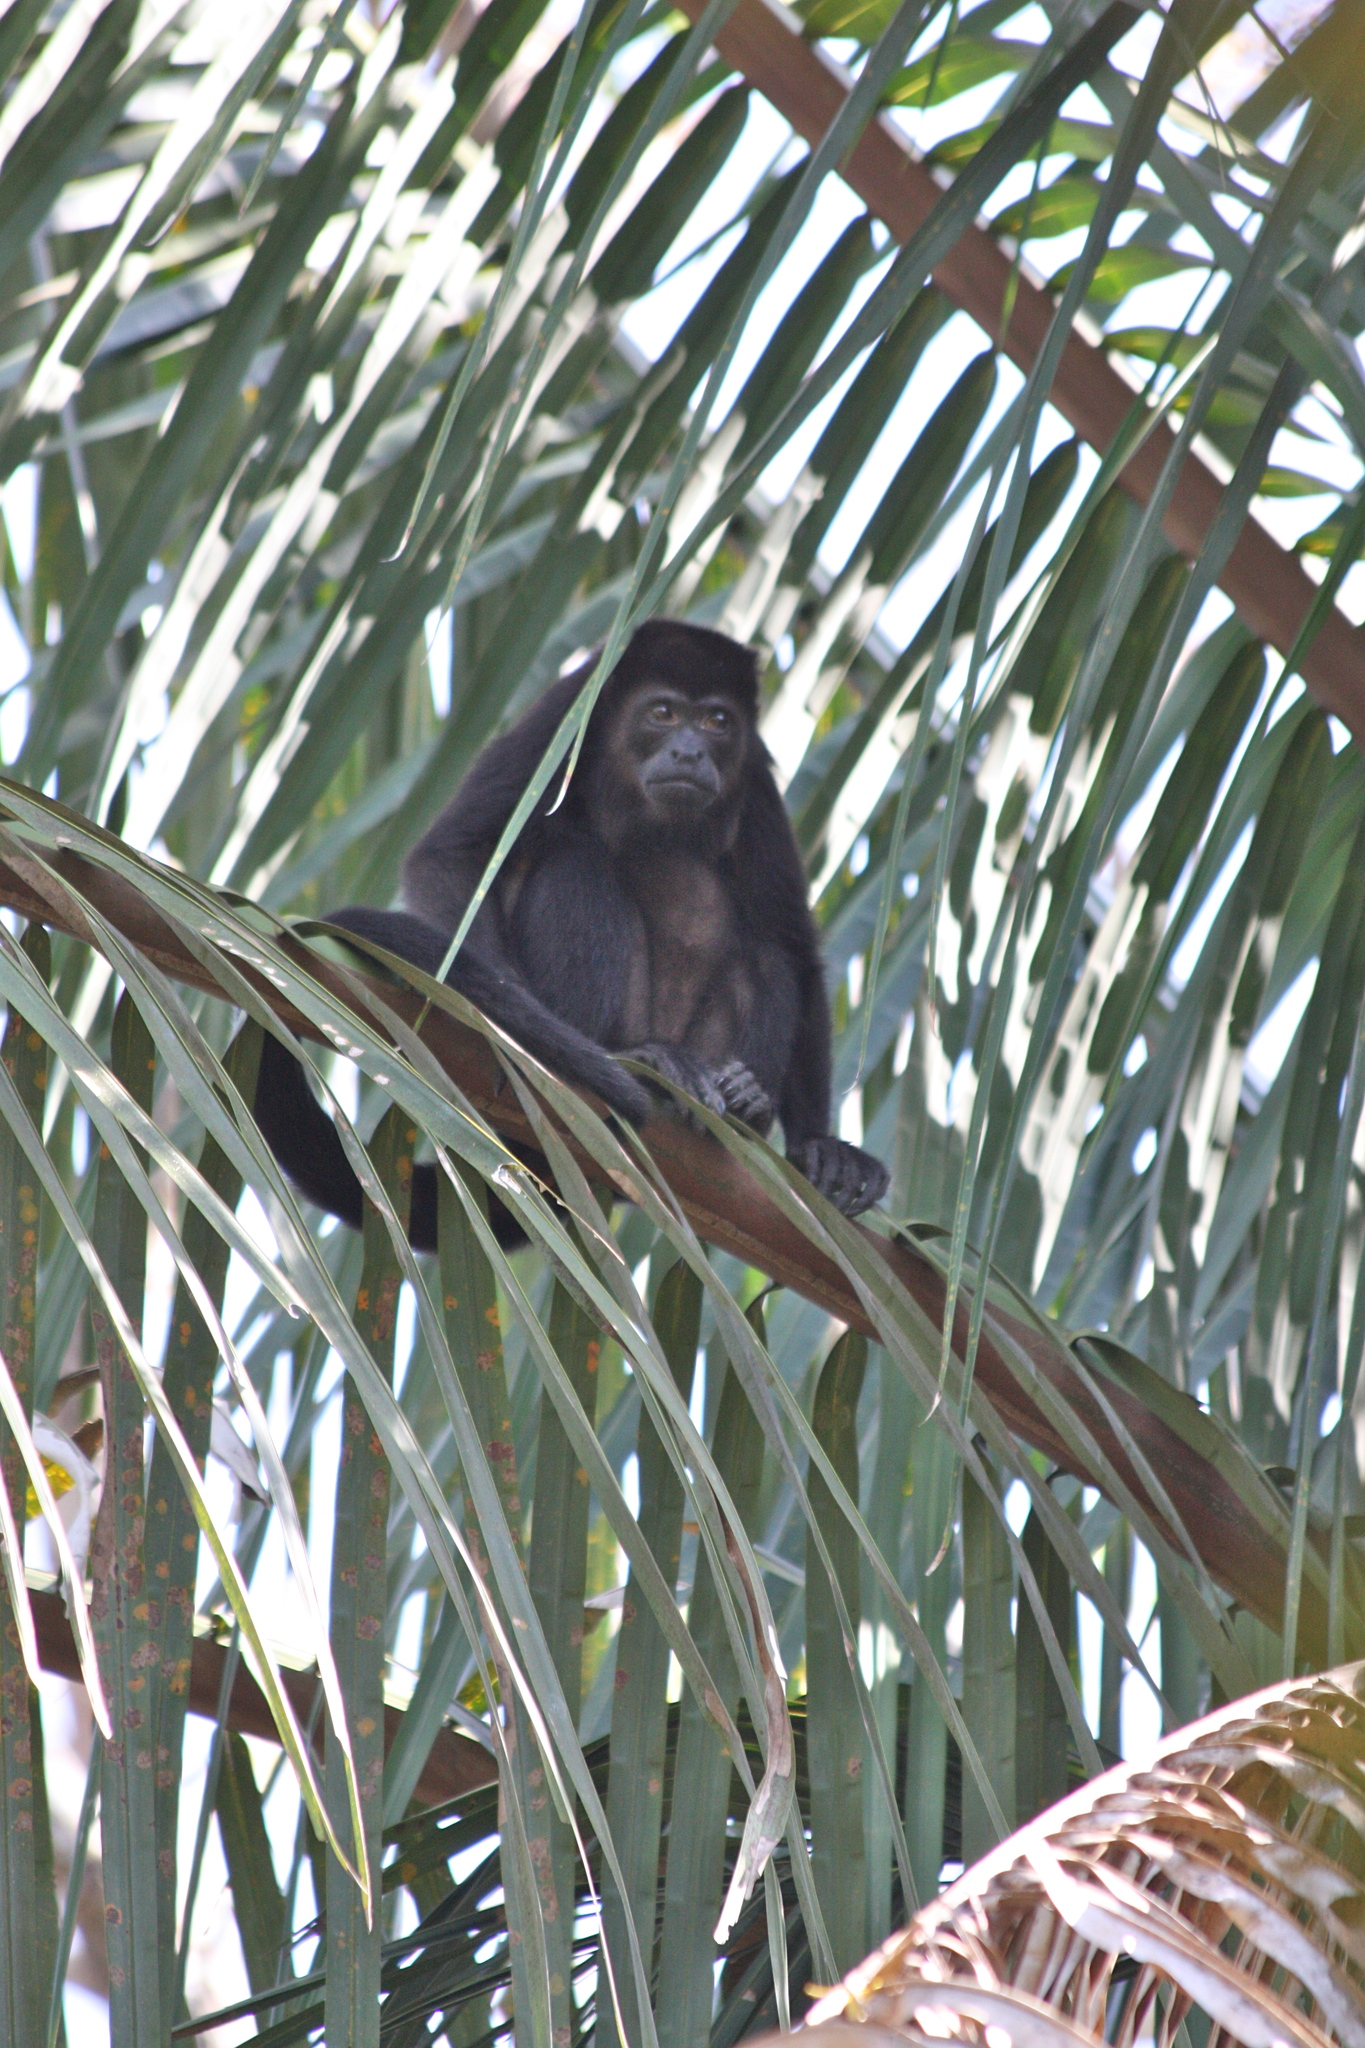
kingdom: Animalia
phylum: Chordata
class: Mammalia
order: Primates
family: Atelidae
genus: Alouatta
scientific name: Alouatta palliata
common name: Mantled howler
